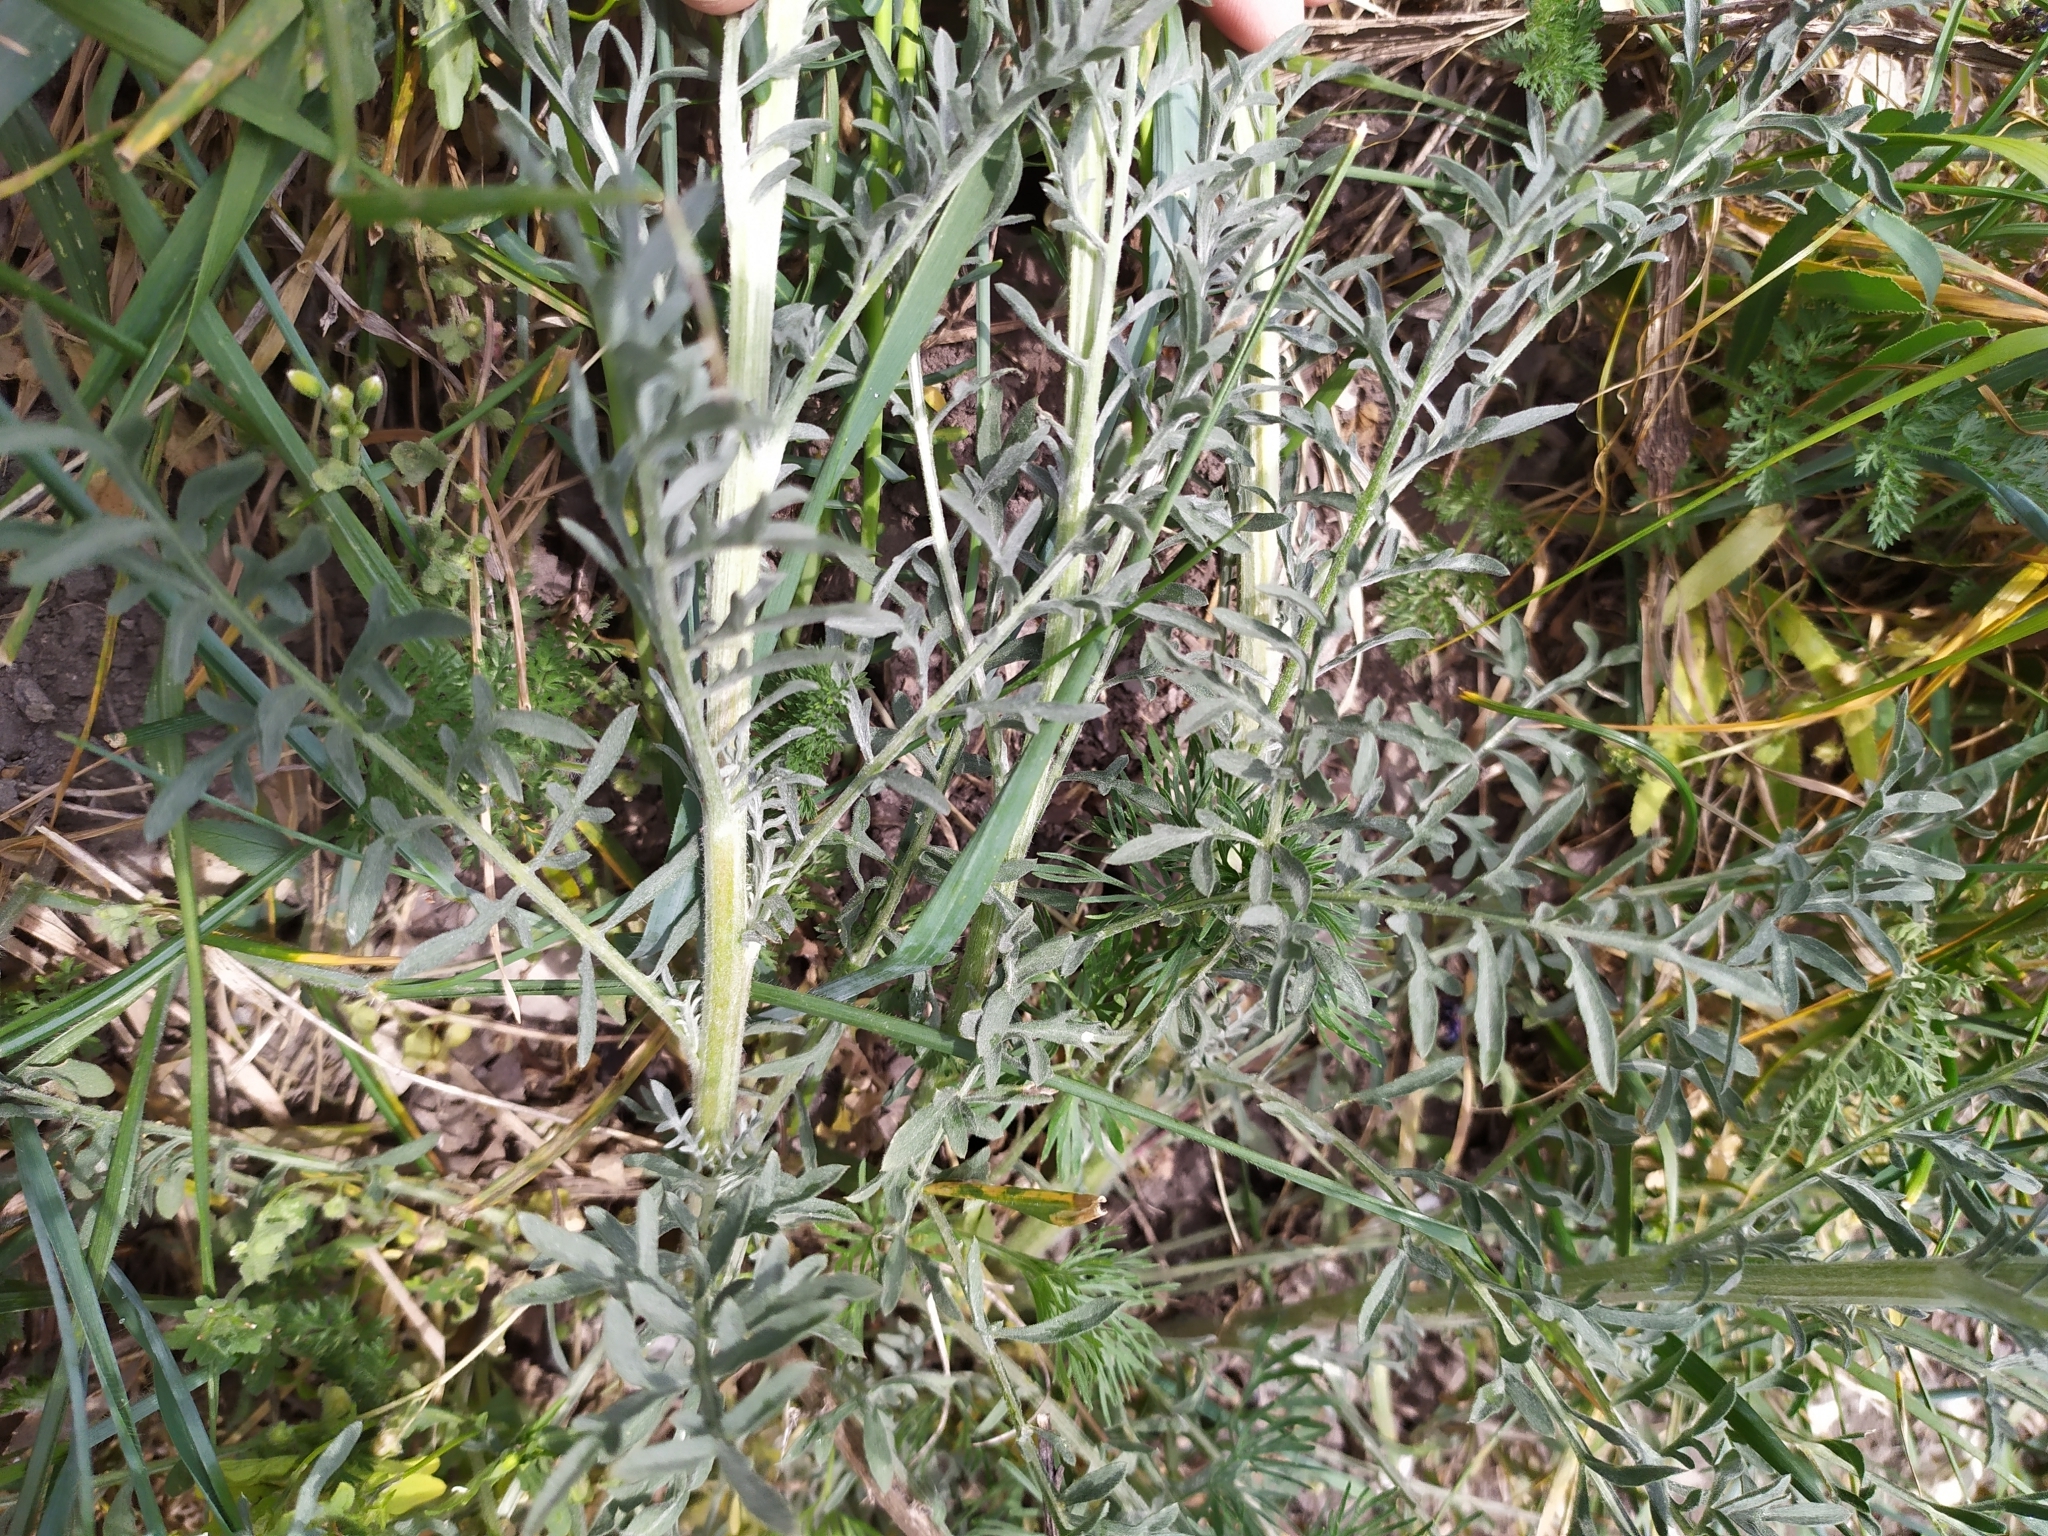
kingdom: Plantae
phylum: Tracheophyta
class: Magnoliopsida
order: Asterales
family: Asteraceae
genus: Centaurea
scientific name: Centaurea stoebe
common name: Spotted knapweed
